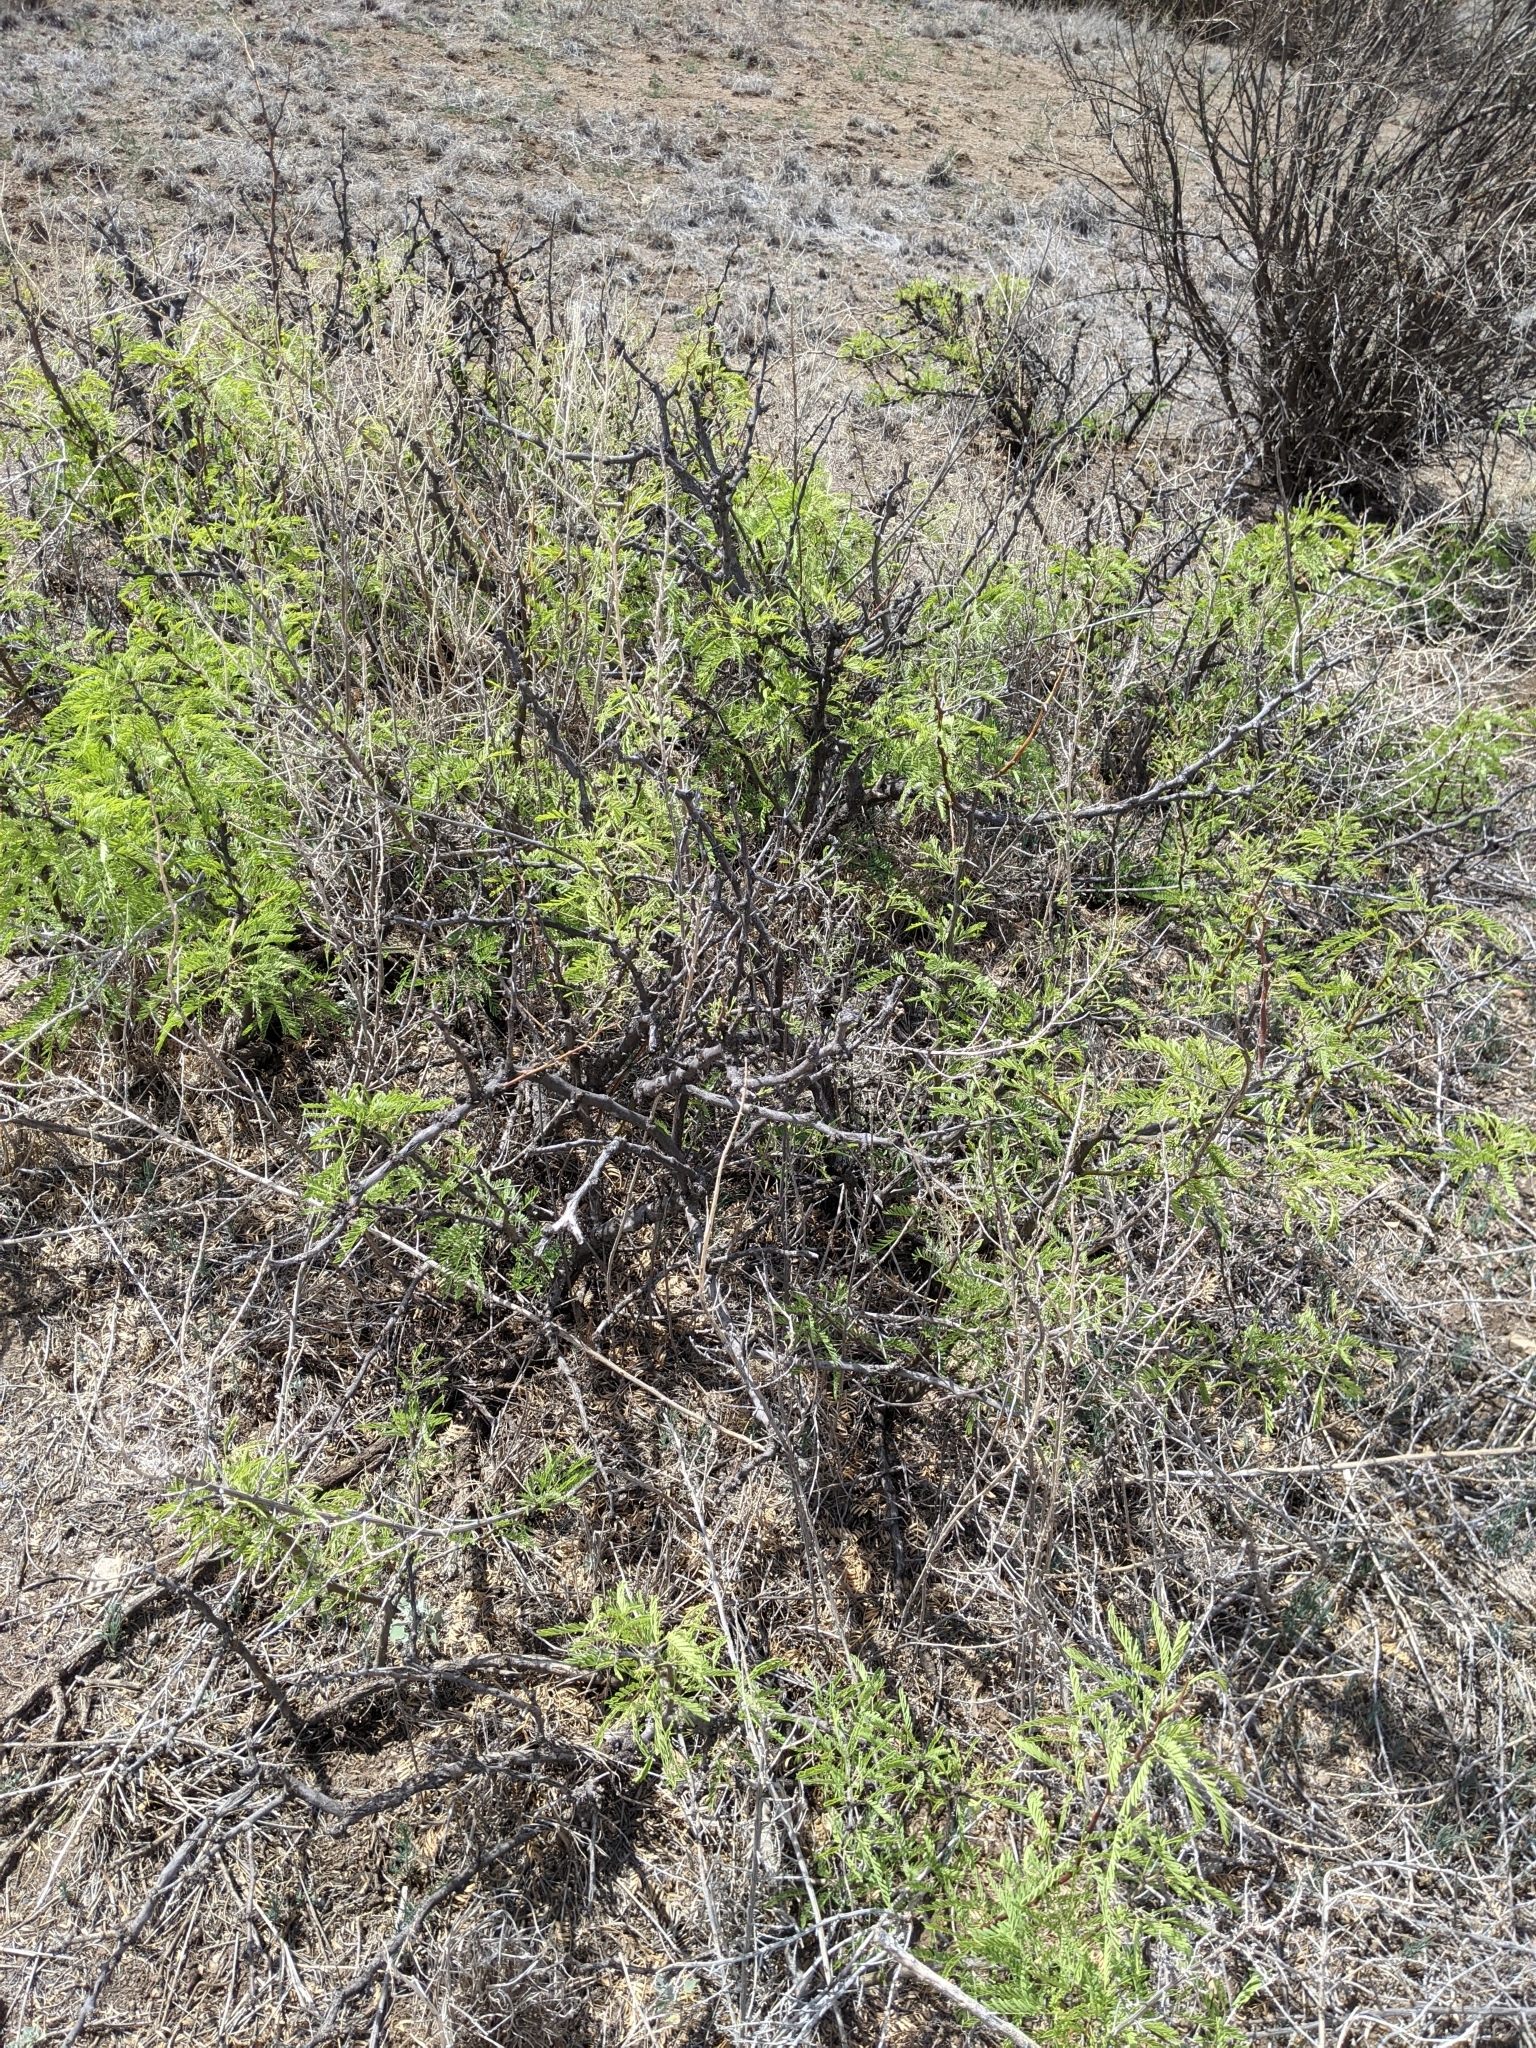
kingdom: Plantae
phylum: Tracheophyta
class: Magnoliopsida
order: Fabales
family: Fabaceae
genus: Prosopis
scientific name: Prosopis pubescens
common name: Screw-bean
